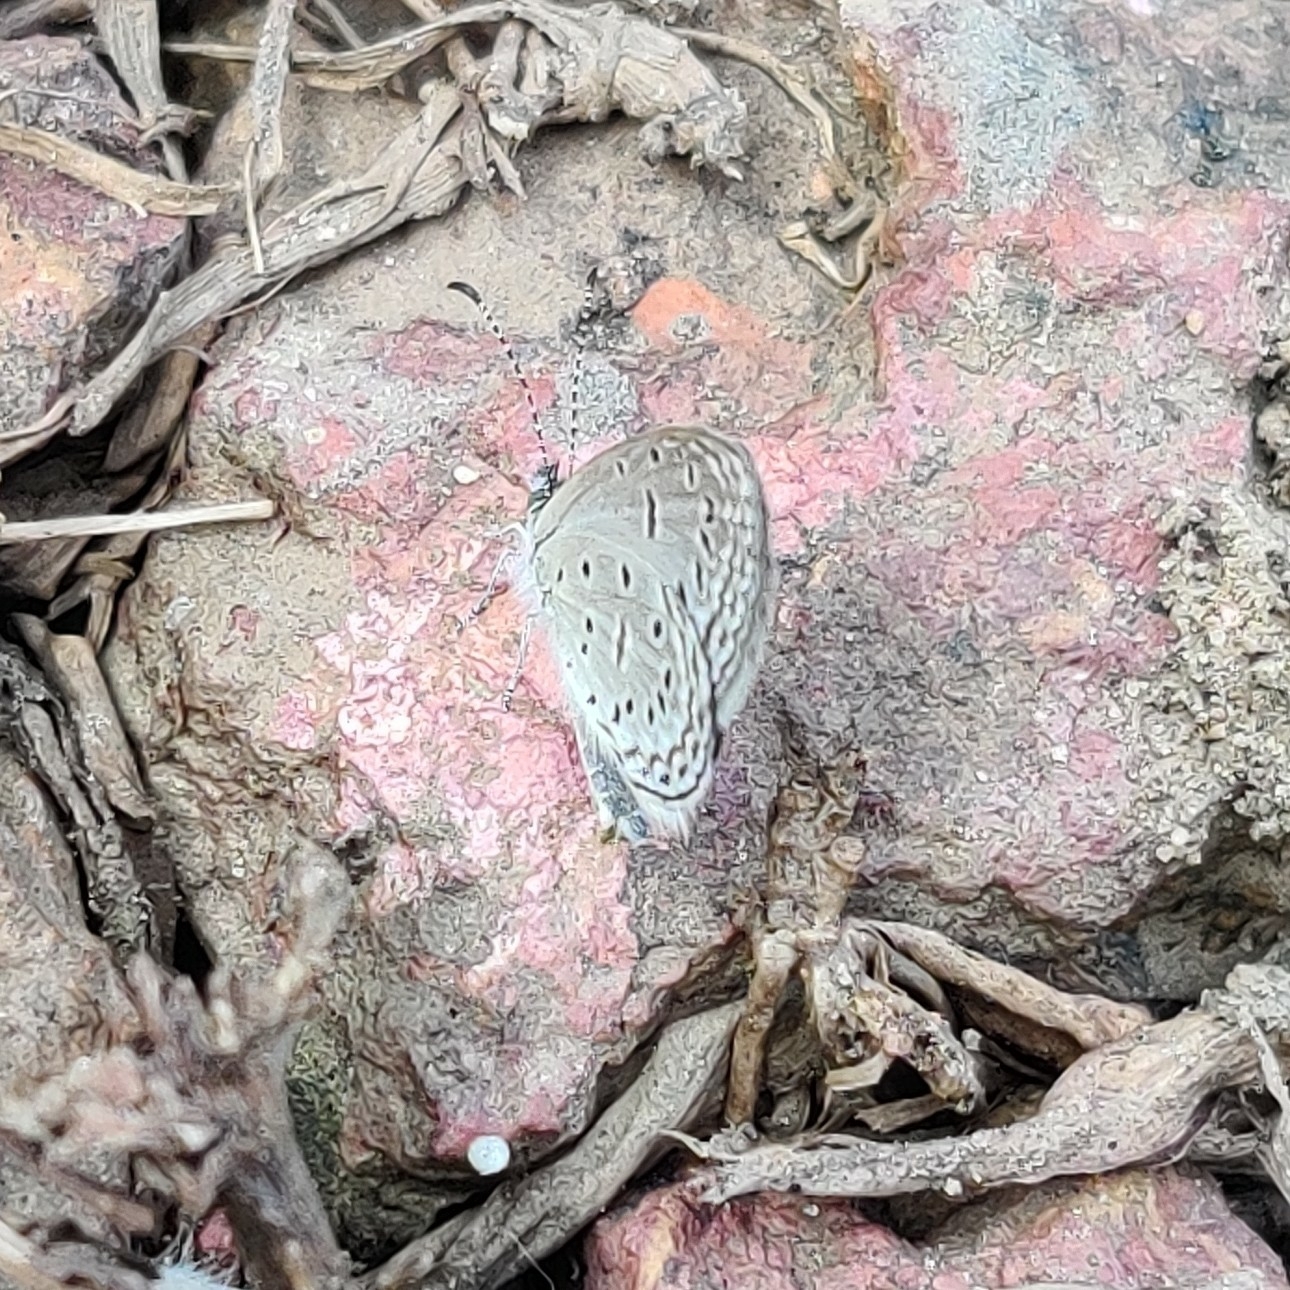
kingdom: Animalia
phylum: Arthropoda
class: Insecta
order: Lepidoptera
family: Lycaenidae
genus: Zizula
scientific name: Zizula hylax
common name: Gaika blue
